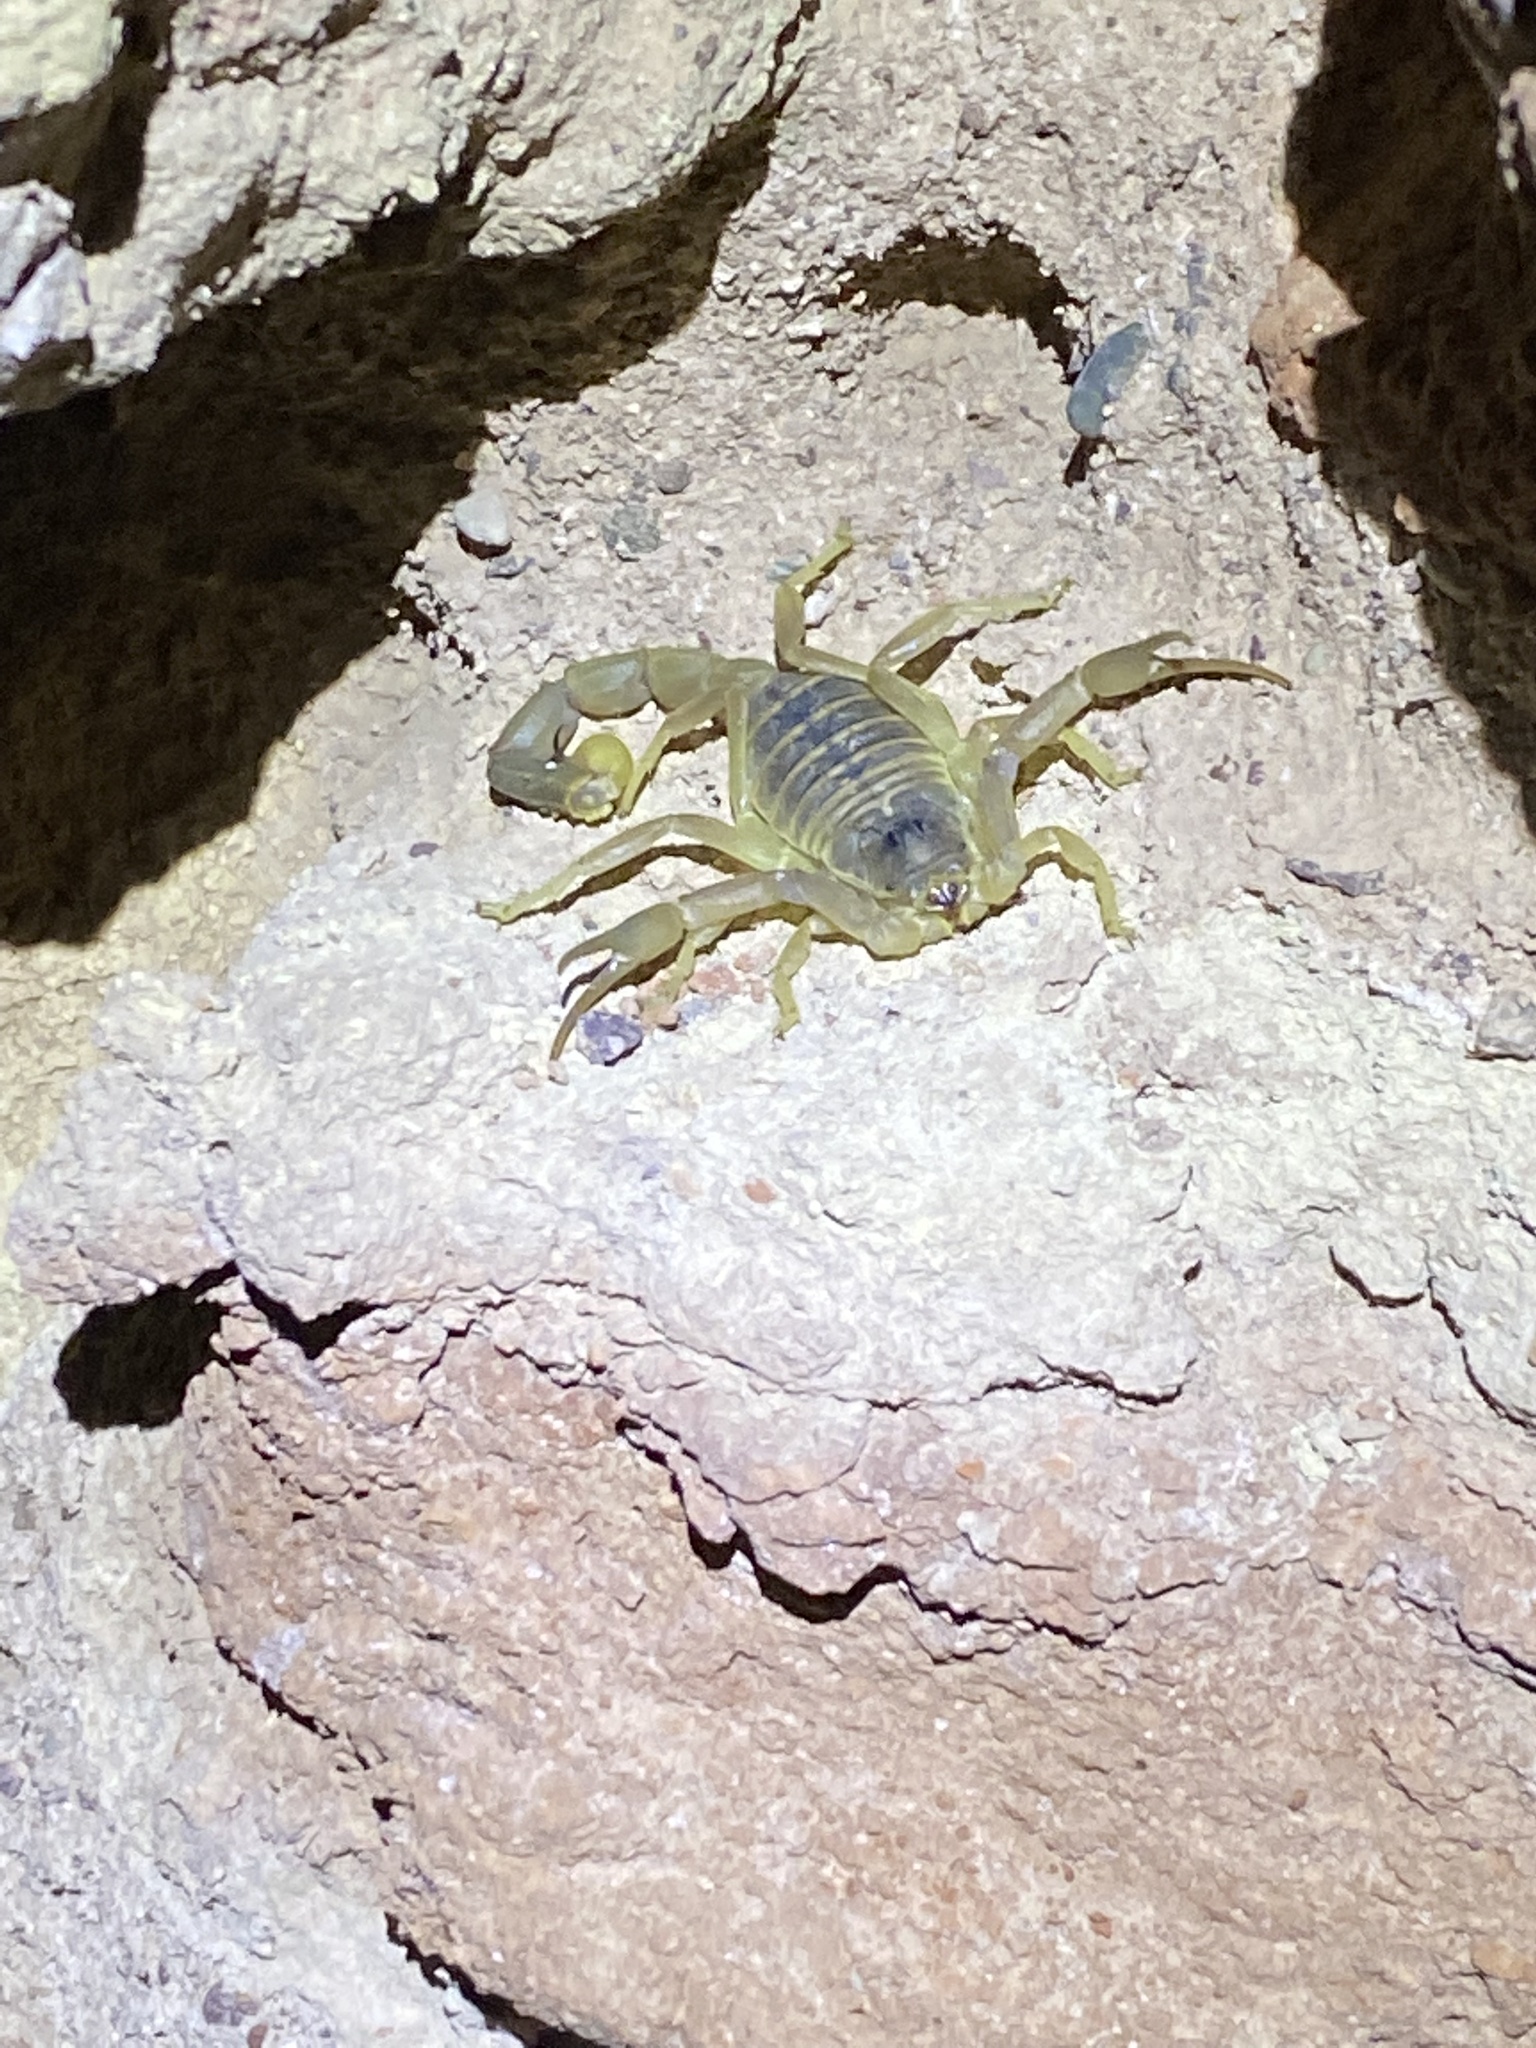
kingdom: Animalia
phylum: Arthropoda
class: Arachnida
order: Scorpiones
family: Buthidae
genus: Odontobuthus
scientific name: Odontobuthus doriae
